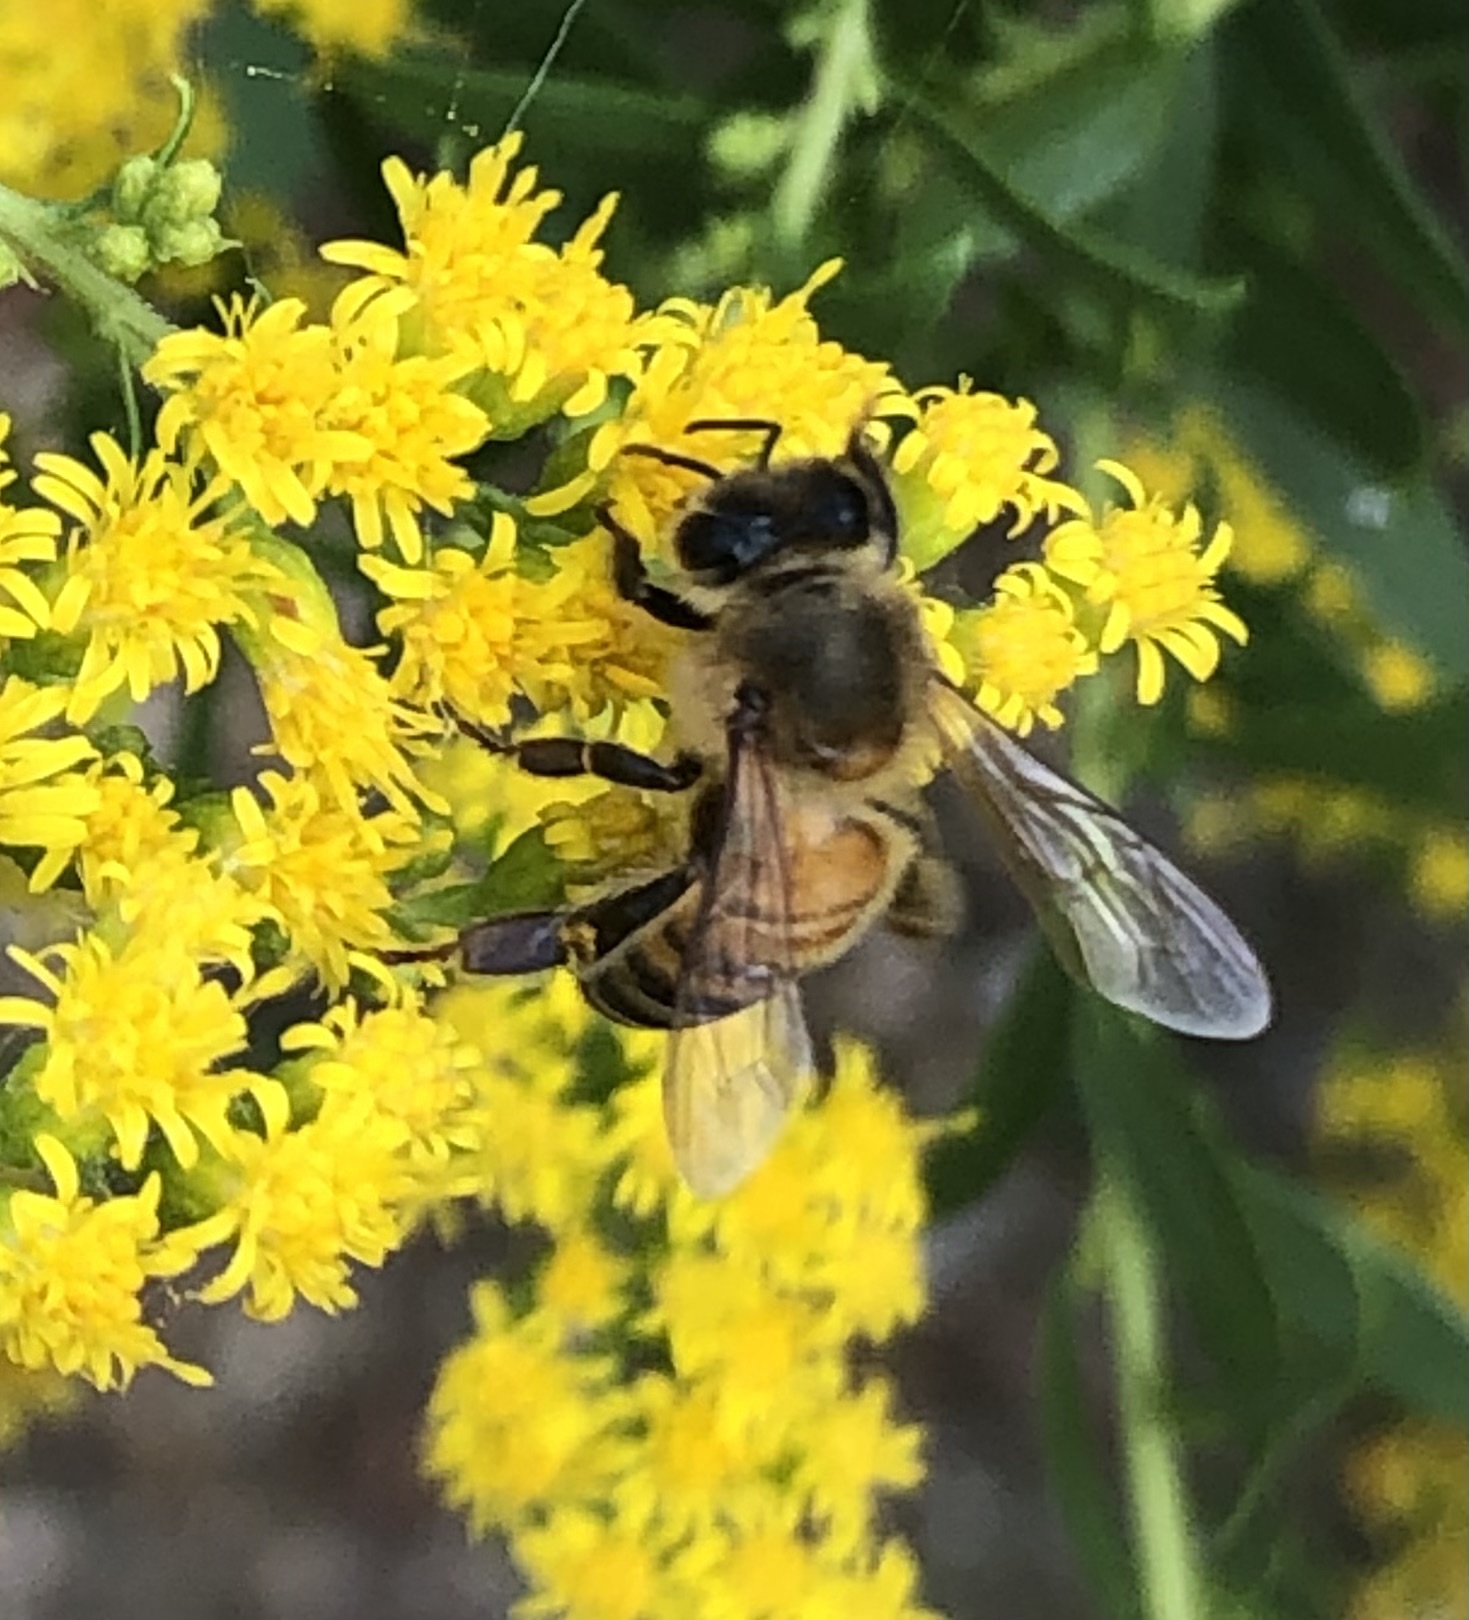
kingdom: Animalia
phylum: Arthropoda
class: Insecta
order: Hymenoptera
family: Apidae
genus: Apis
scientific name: Apis mellifera
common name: Honey bee
